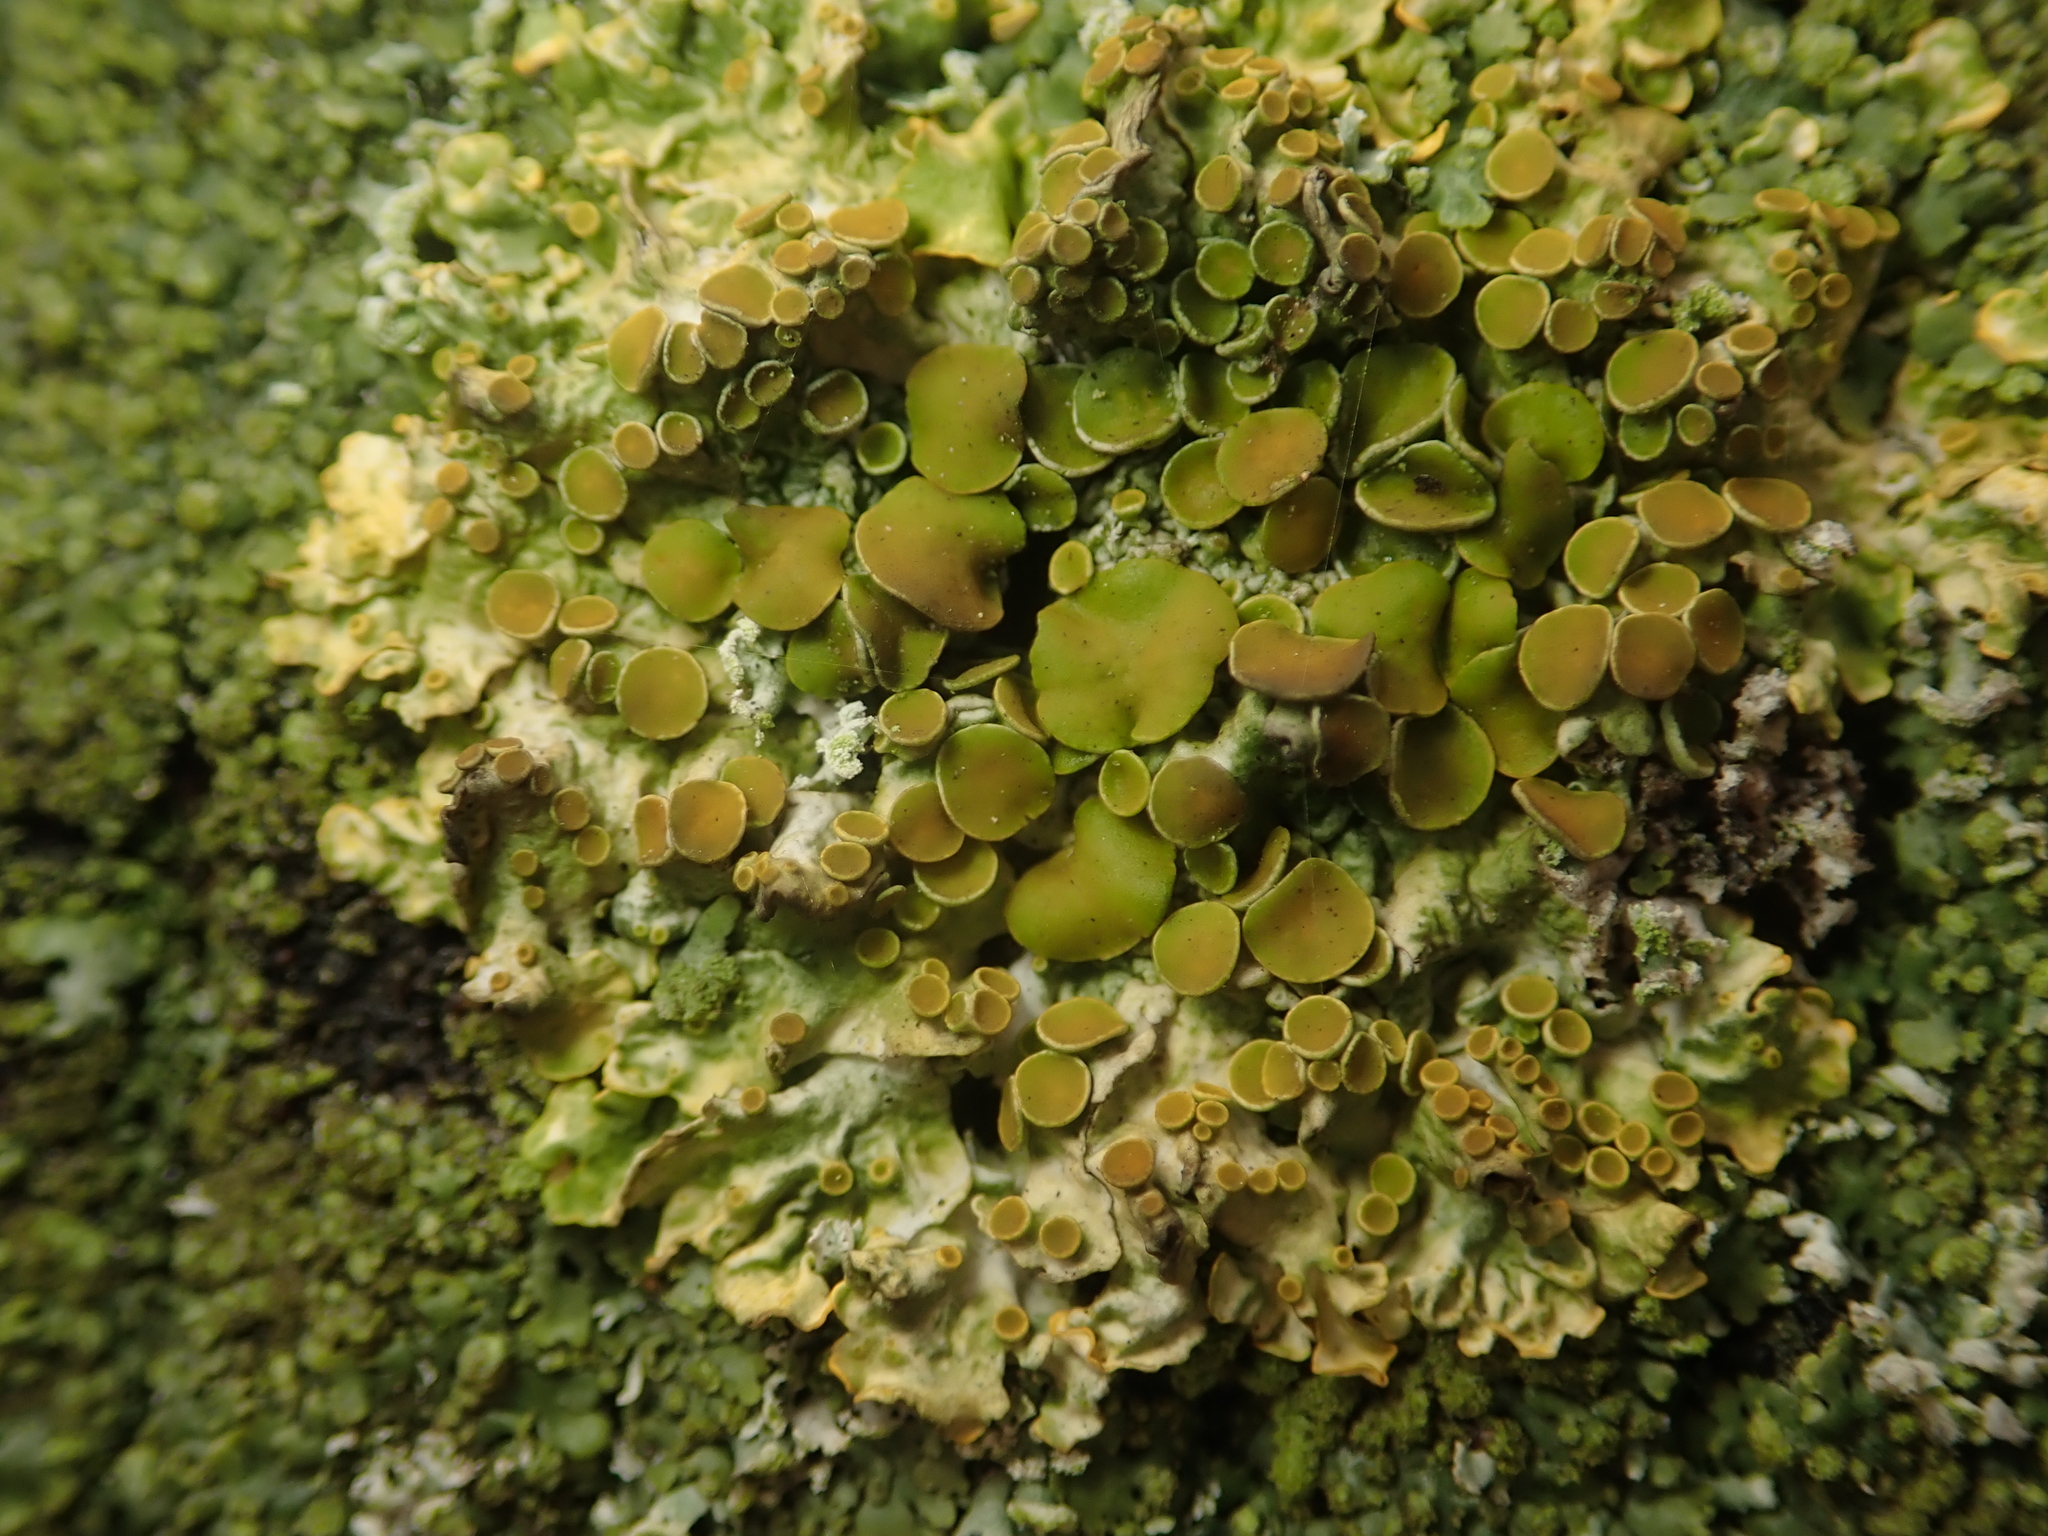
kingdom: Fungi
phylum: Ascomycota
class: Lecanoromycetes
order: Teloschistales
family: Teloschistaceae
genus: Xanthoria
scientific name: Xanthoria parietina
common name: Common orange lichen
